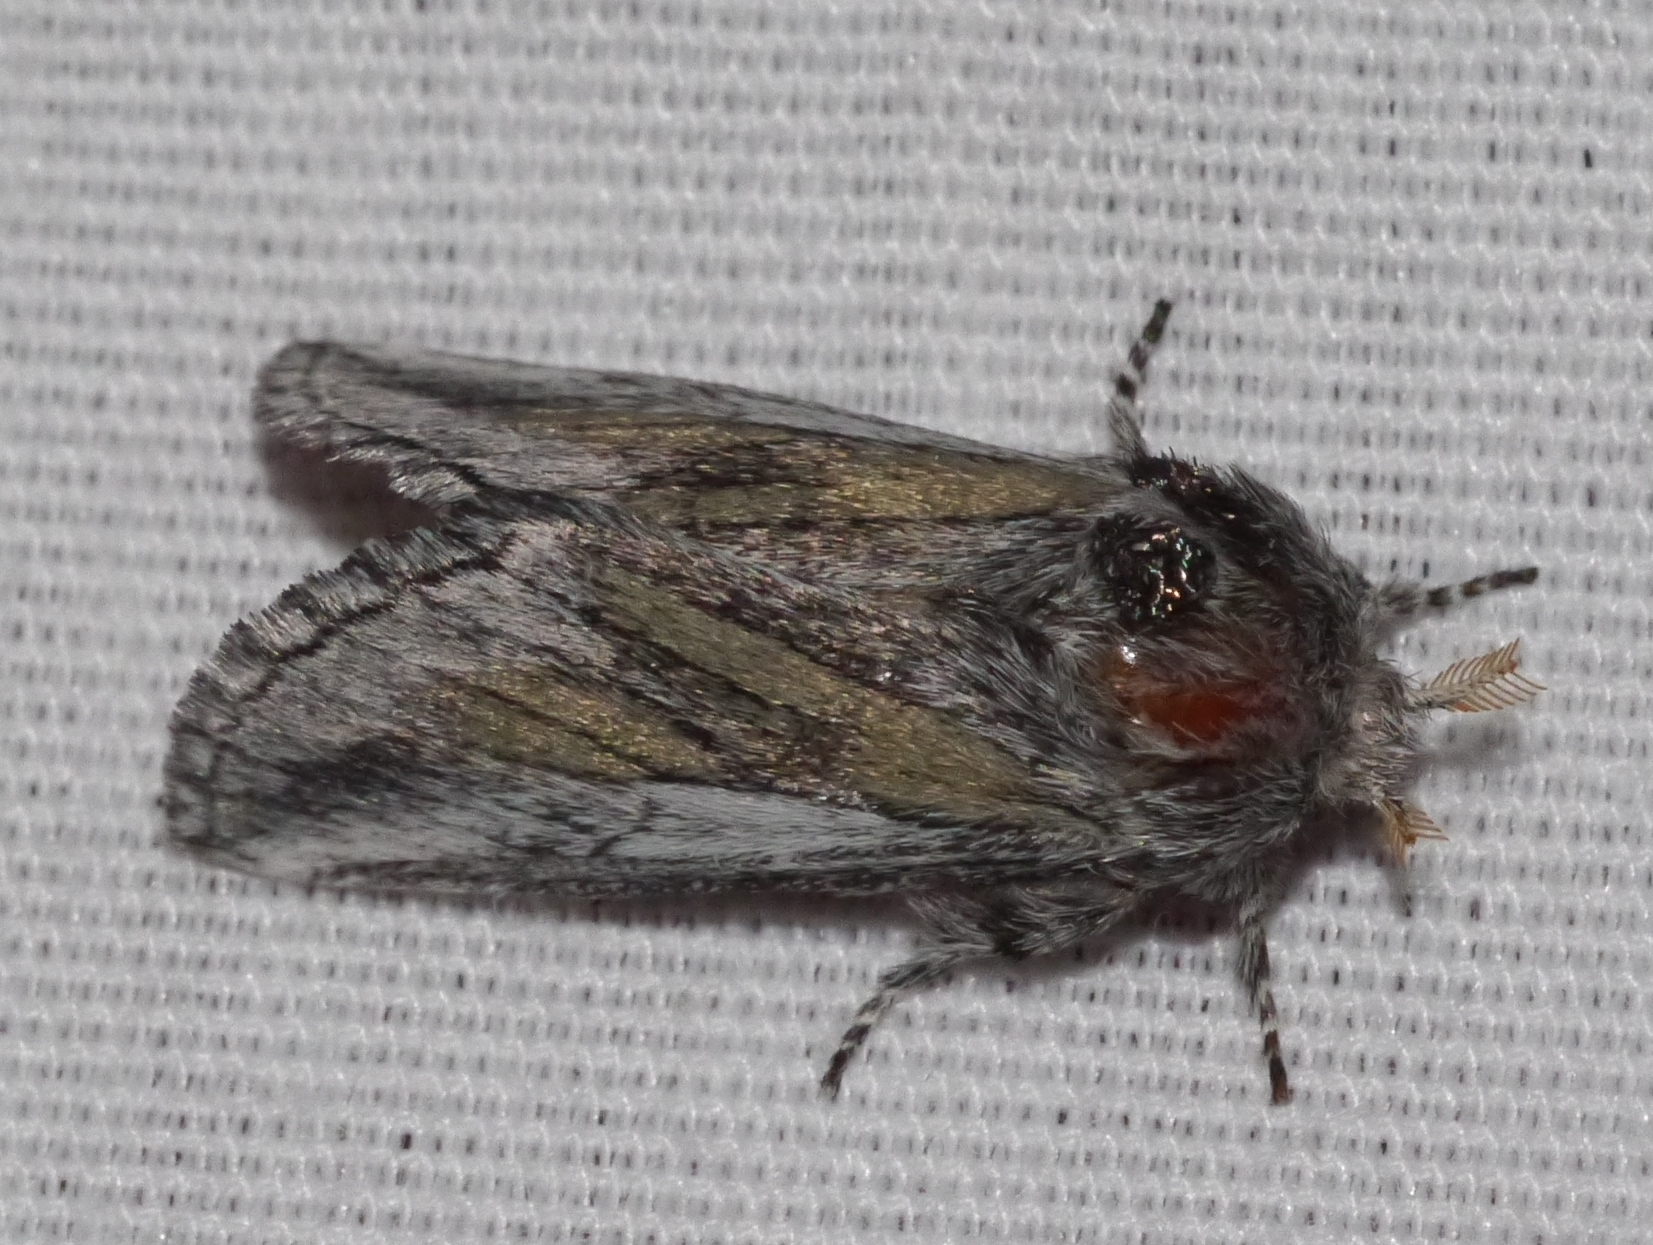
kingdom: Animalia
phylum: Arthropoda
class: Insecta
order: Lepidoptera
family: Notodontidae
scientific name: Notodontidae
